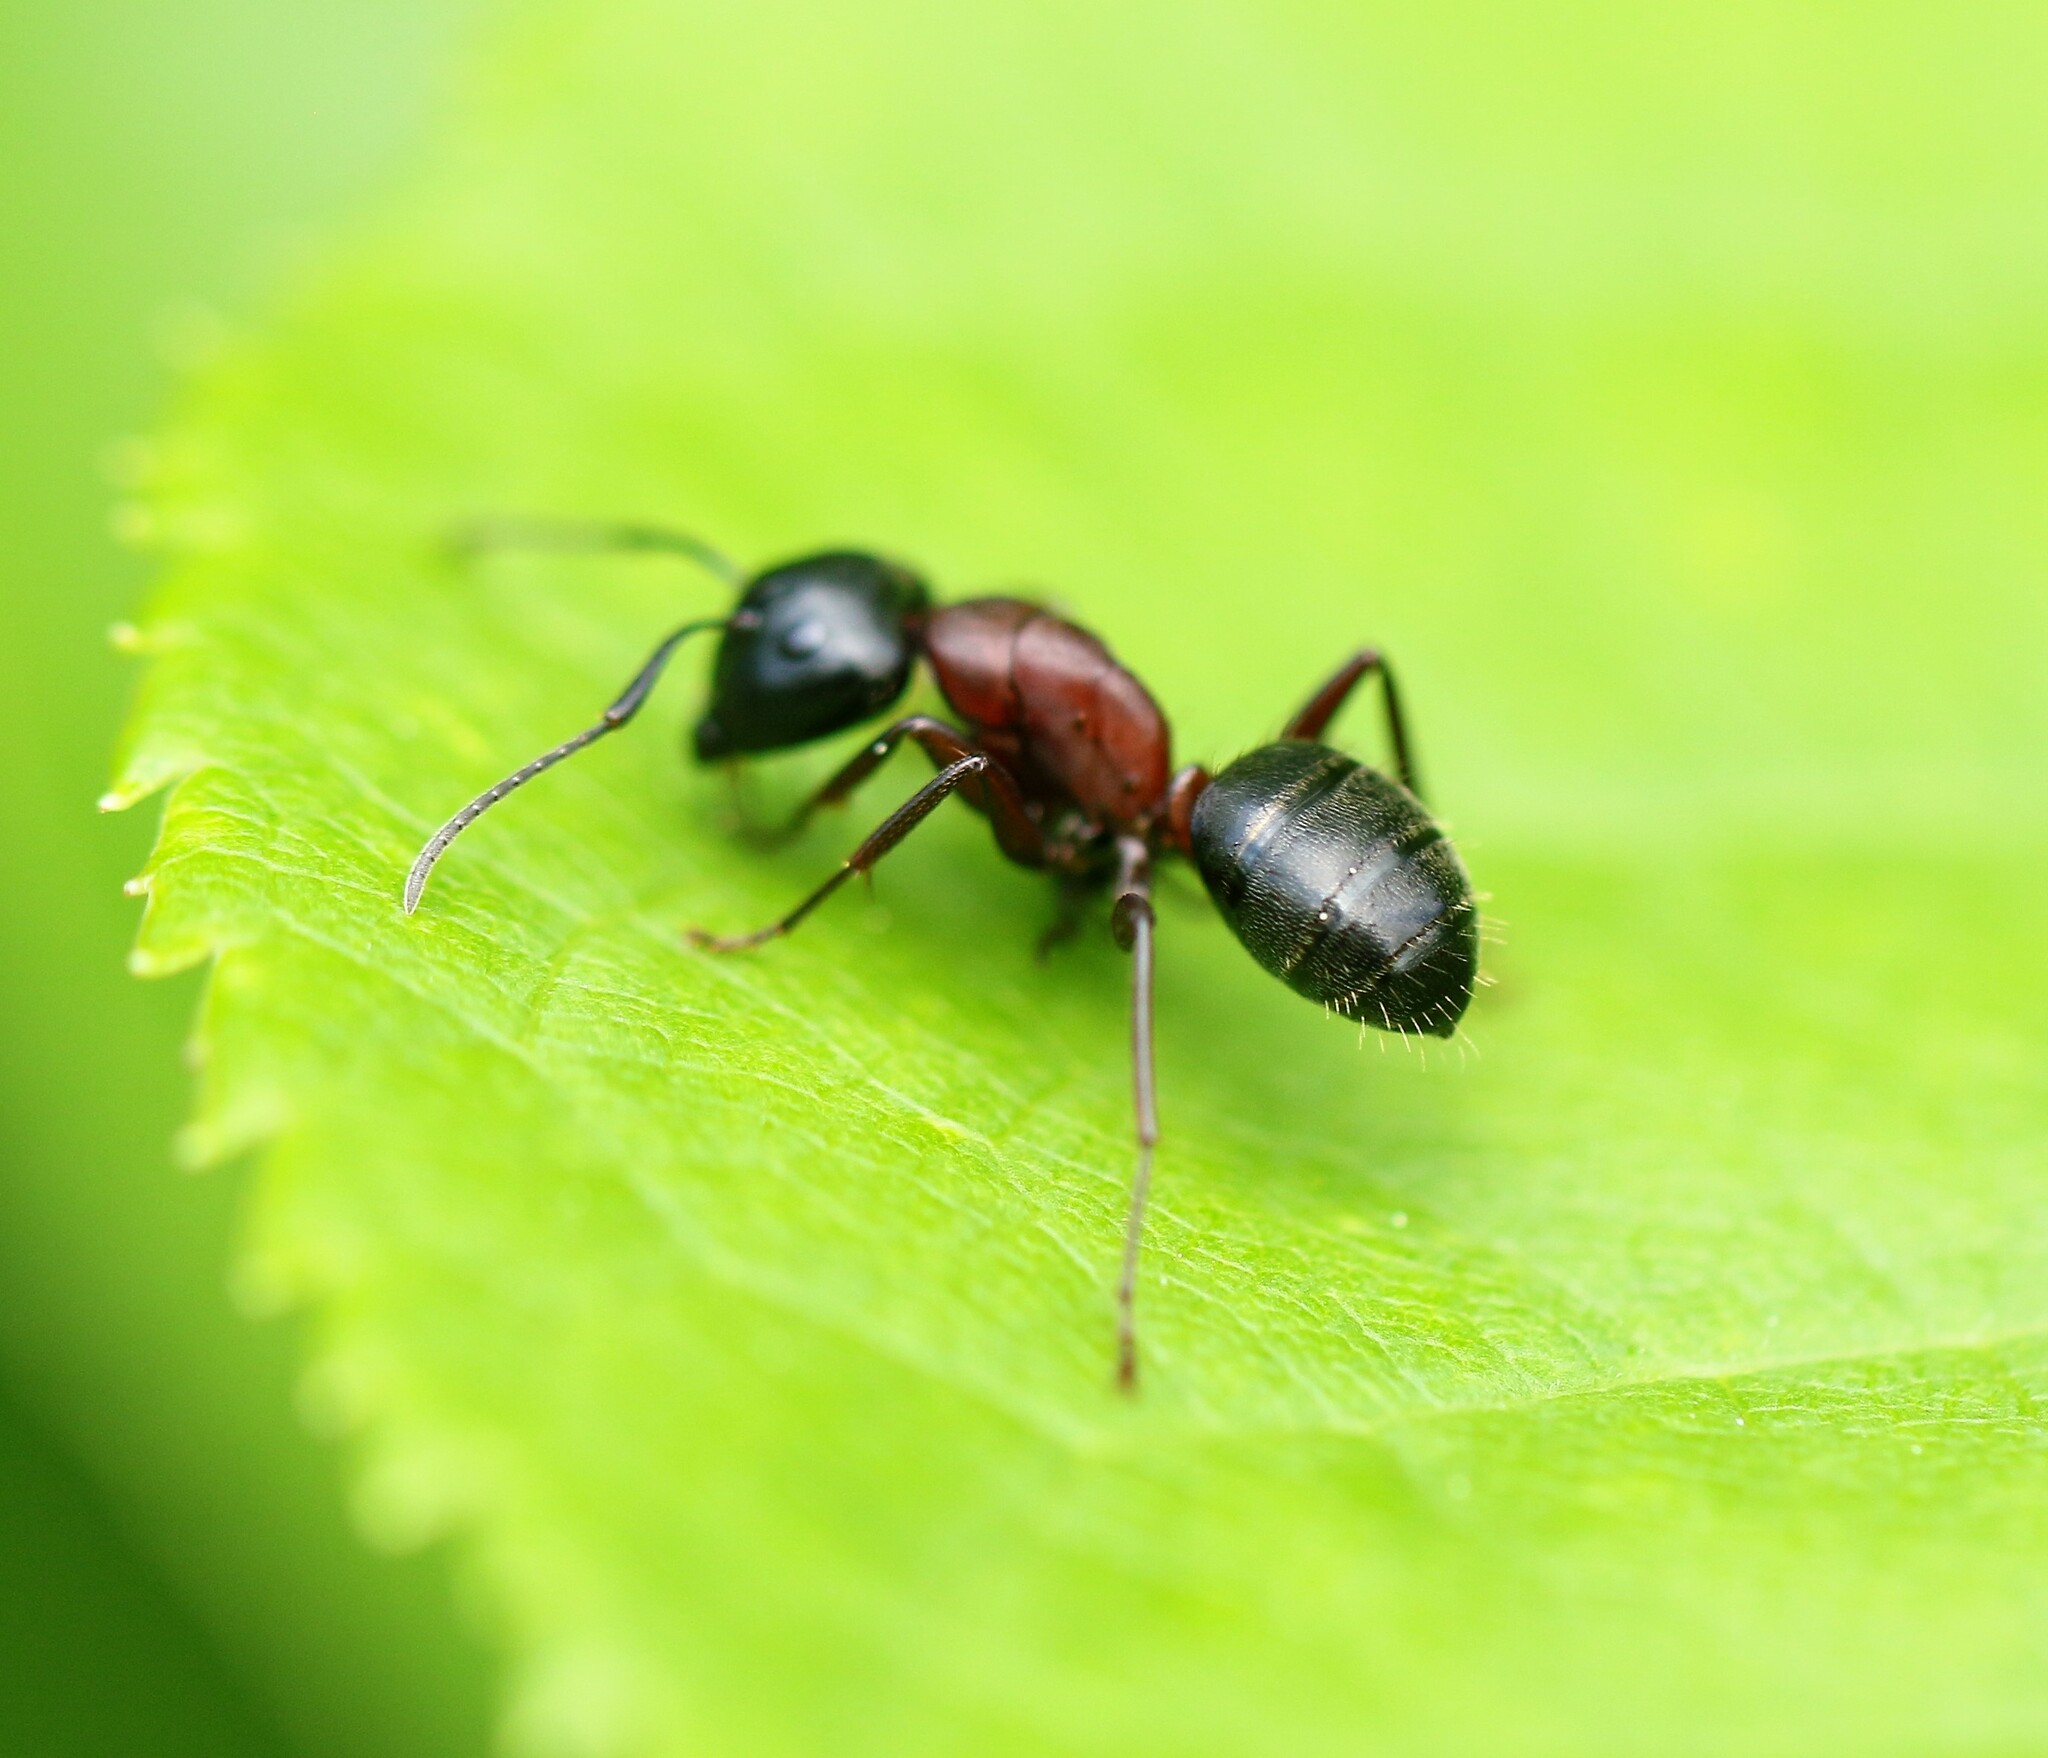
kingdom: Animalia
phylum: Arthropoda
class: Insecta
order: Hymenoptera
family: Formicidae
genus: Camponotus
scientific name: Camponotus novaeboracensis
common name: New york carpenter ant
